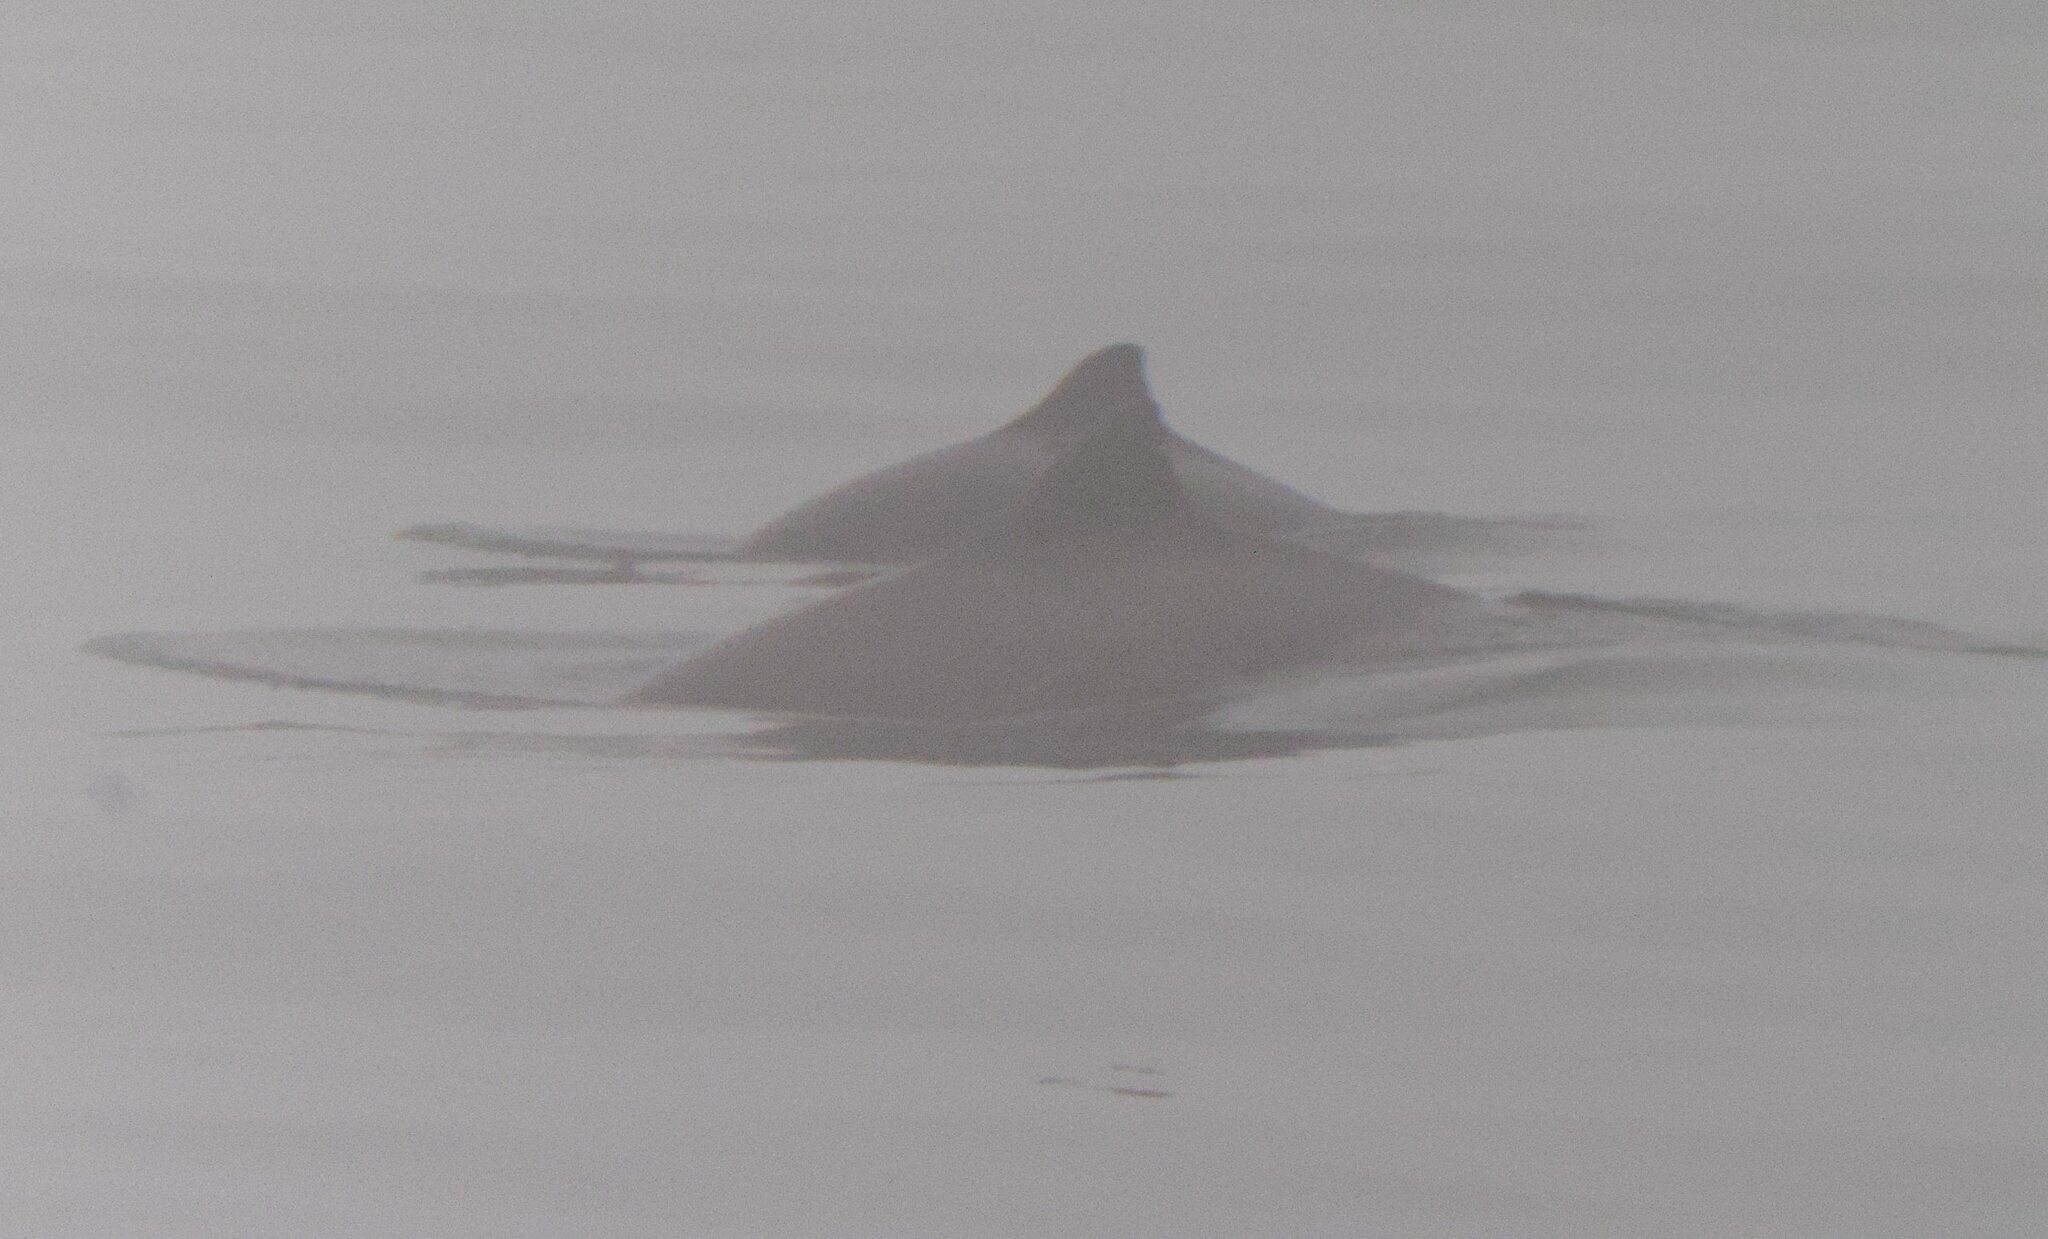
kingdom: Animalia
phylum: Chordata
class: Mammalia
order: Cetacea
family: Phocoenidae
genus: Phocoena
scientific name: Phocoena phocoena
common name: Harbor porpoise
